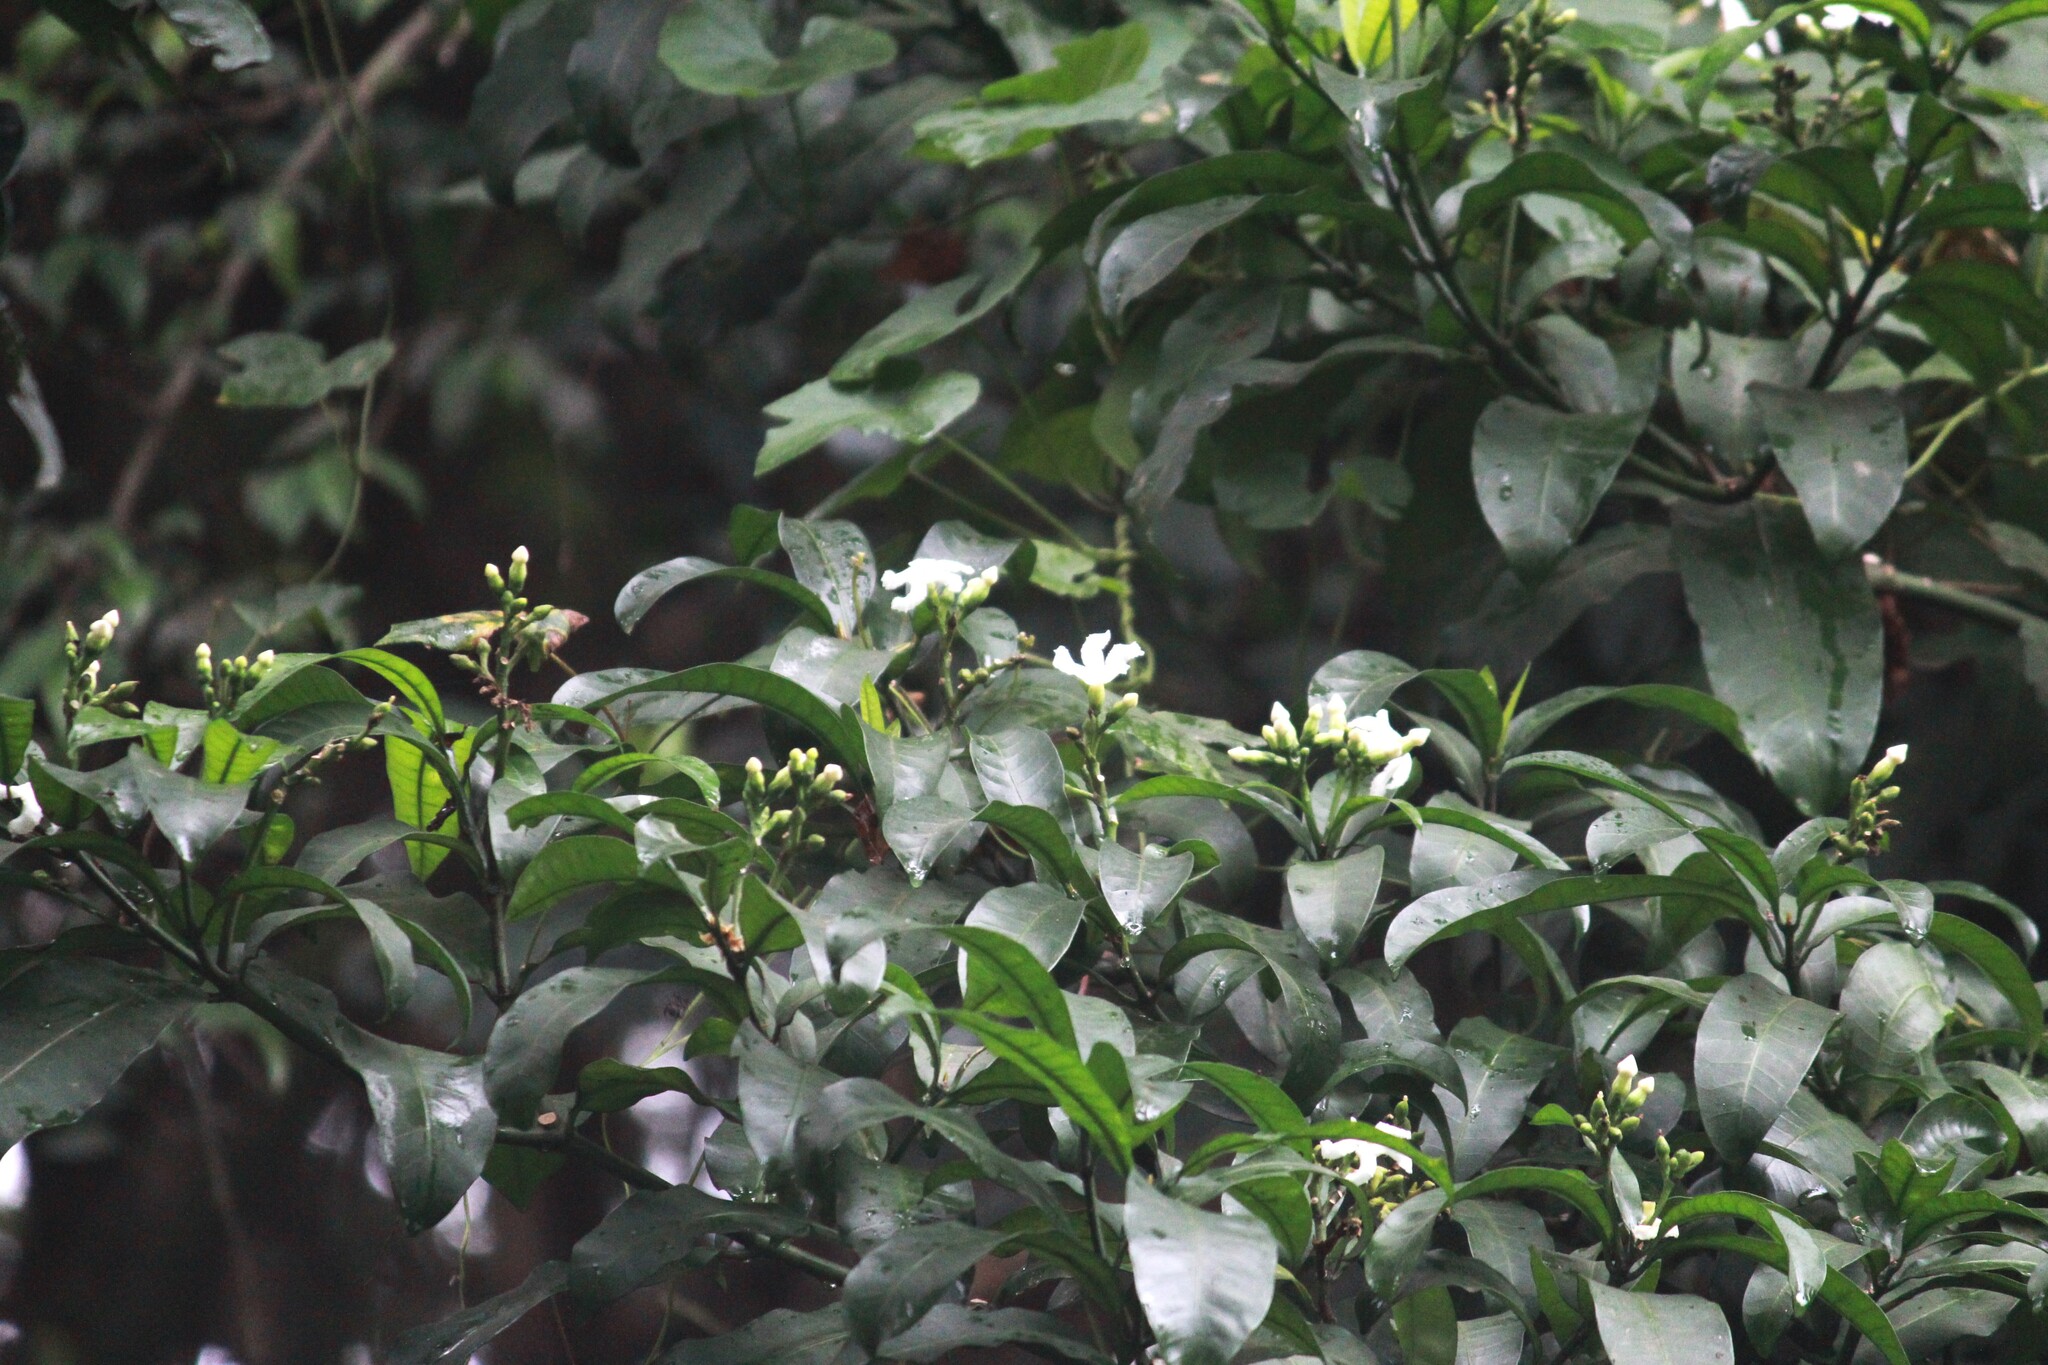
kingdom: Plantae
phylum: Tracheophyta
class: Magnoliopsida
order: Gentianales
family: Apocynaceae
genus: Tabernaemontana
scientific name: Tabernaemontana ventricosa
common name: Forest toad-tree
